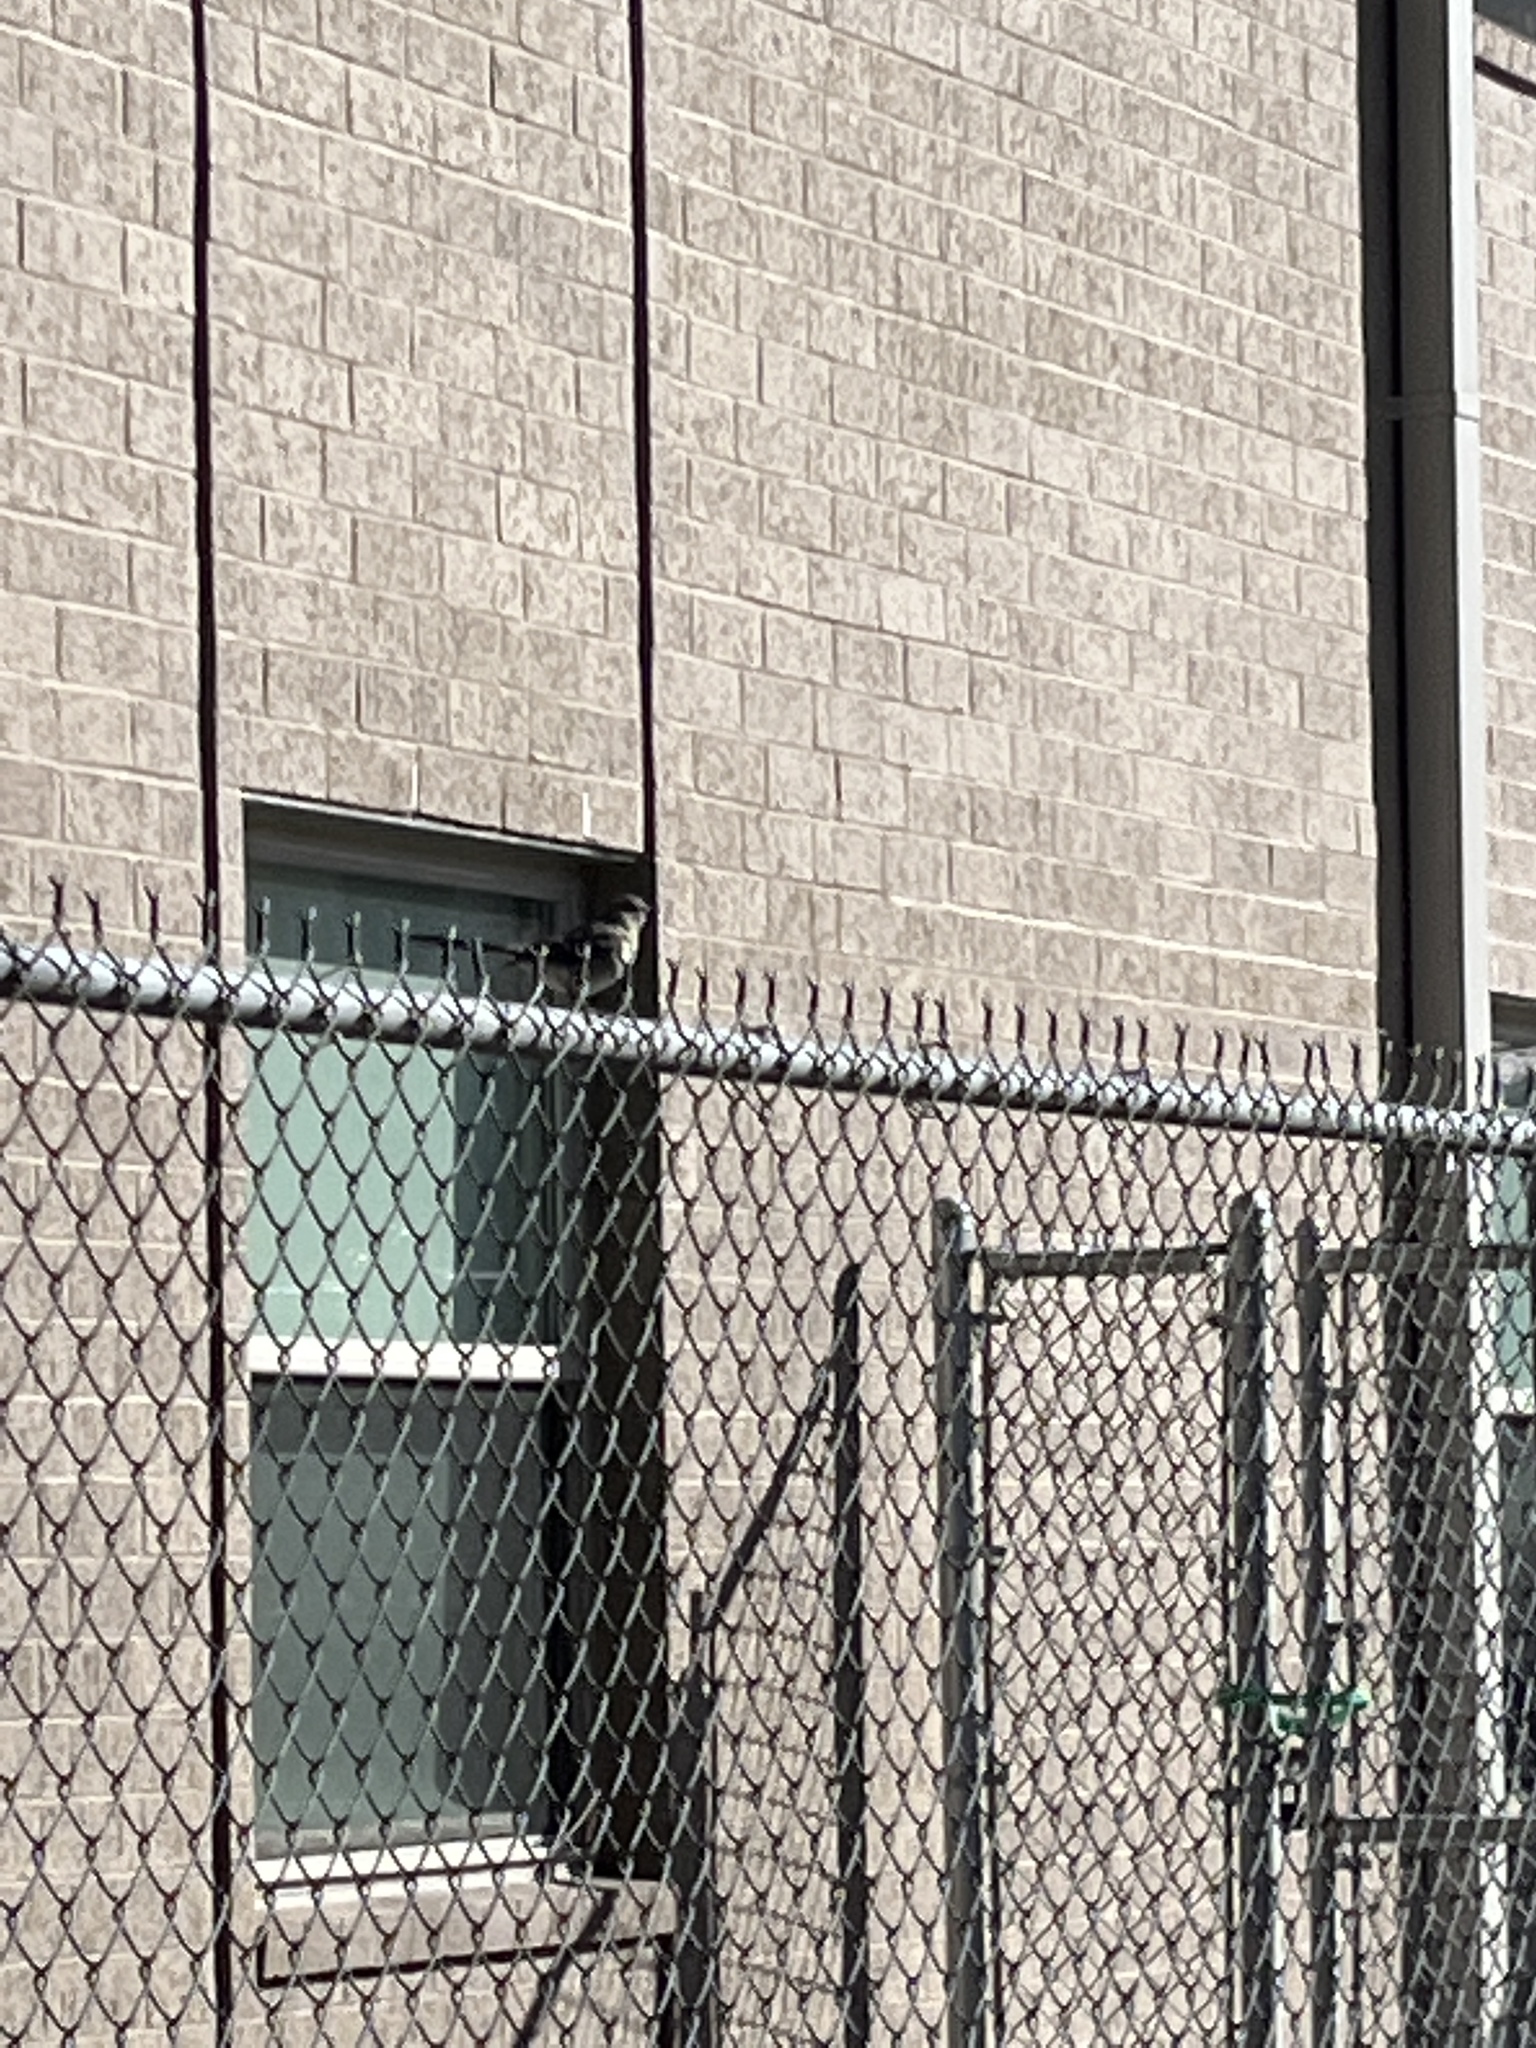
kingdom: Animalia
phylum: Chordata
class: Aves
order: Passeriformes
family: Mimidae
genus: Mimus
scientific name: Mimus polyglottos
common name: Northern mockingbird
